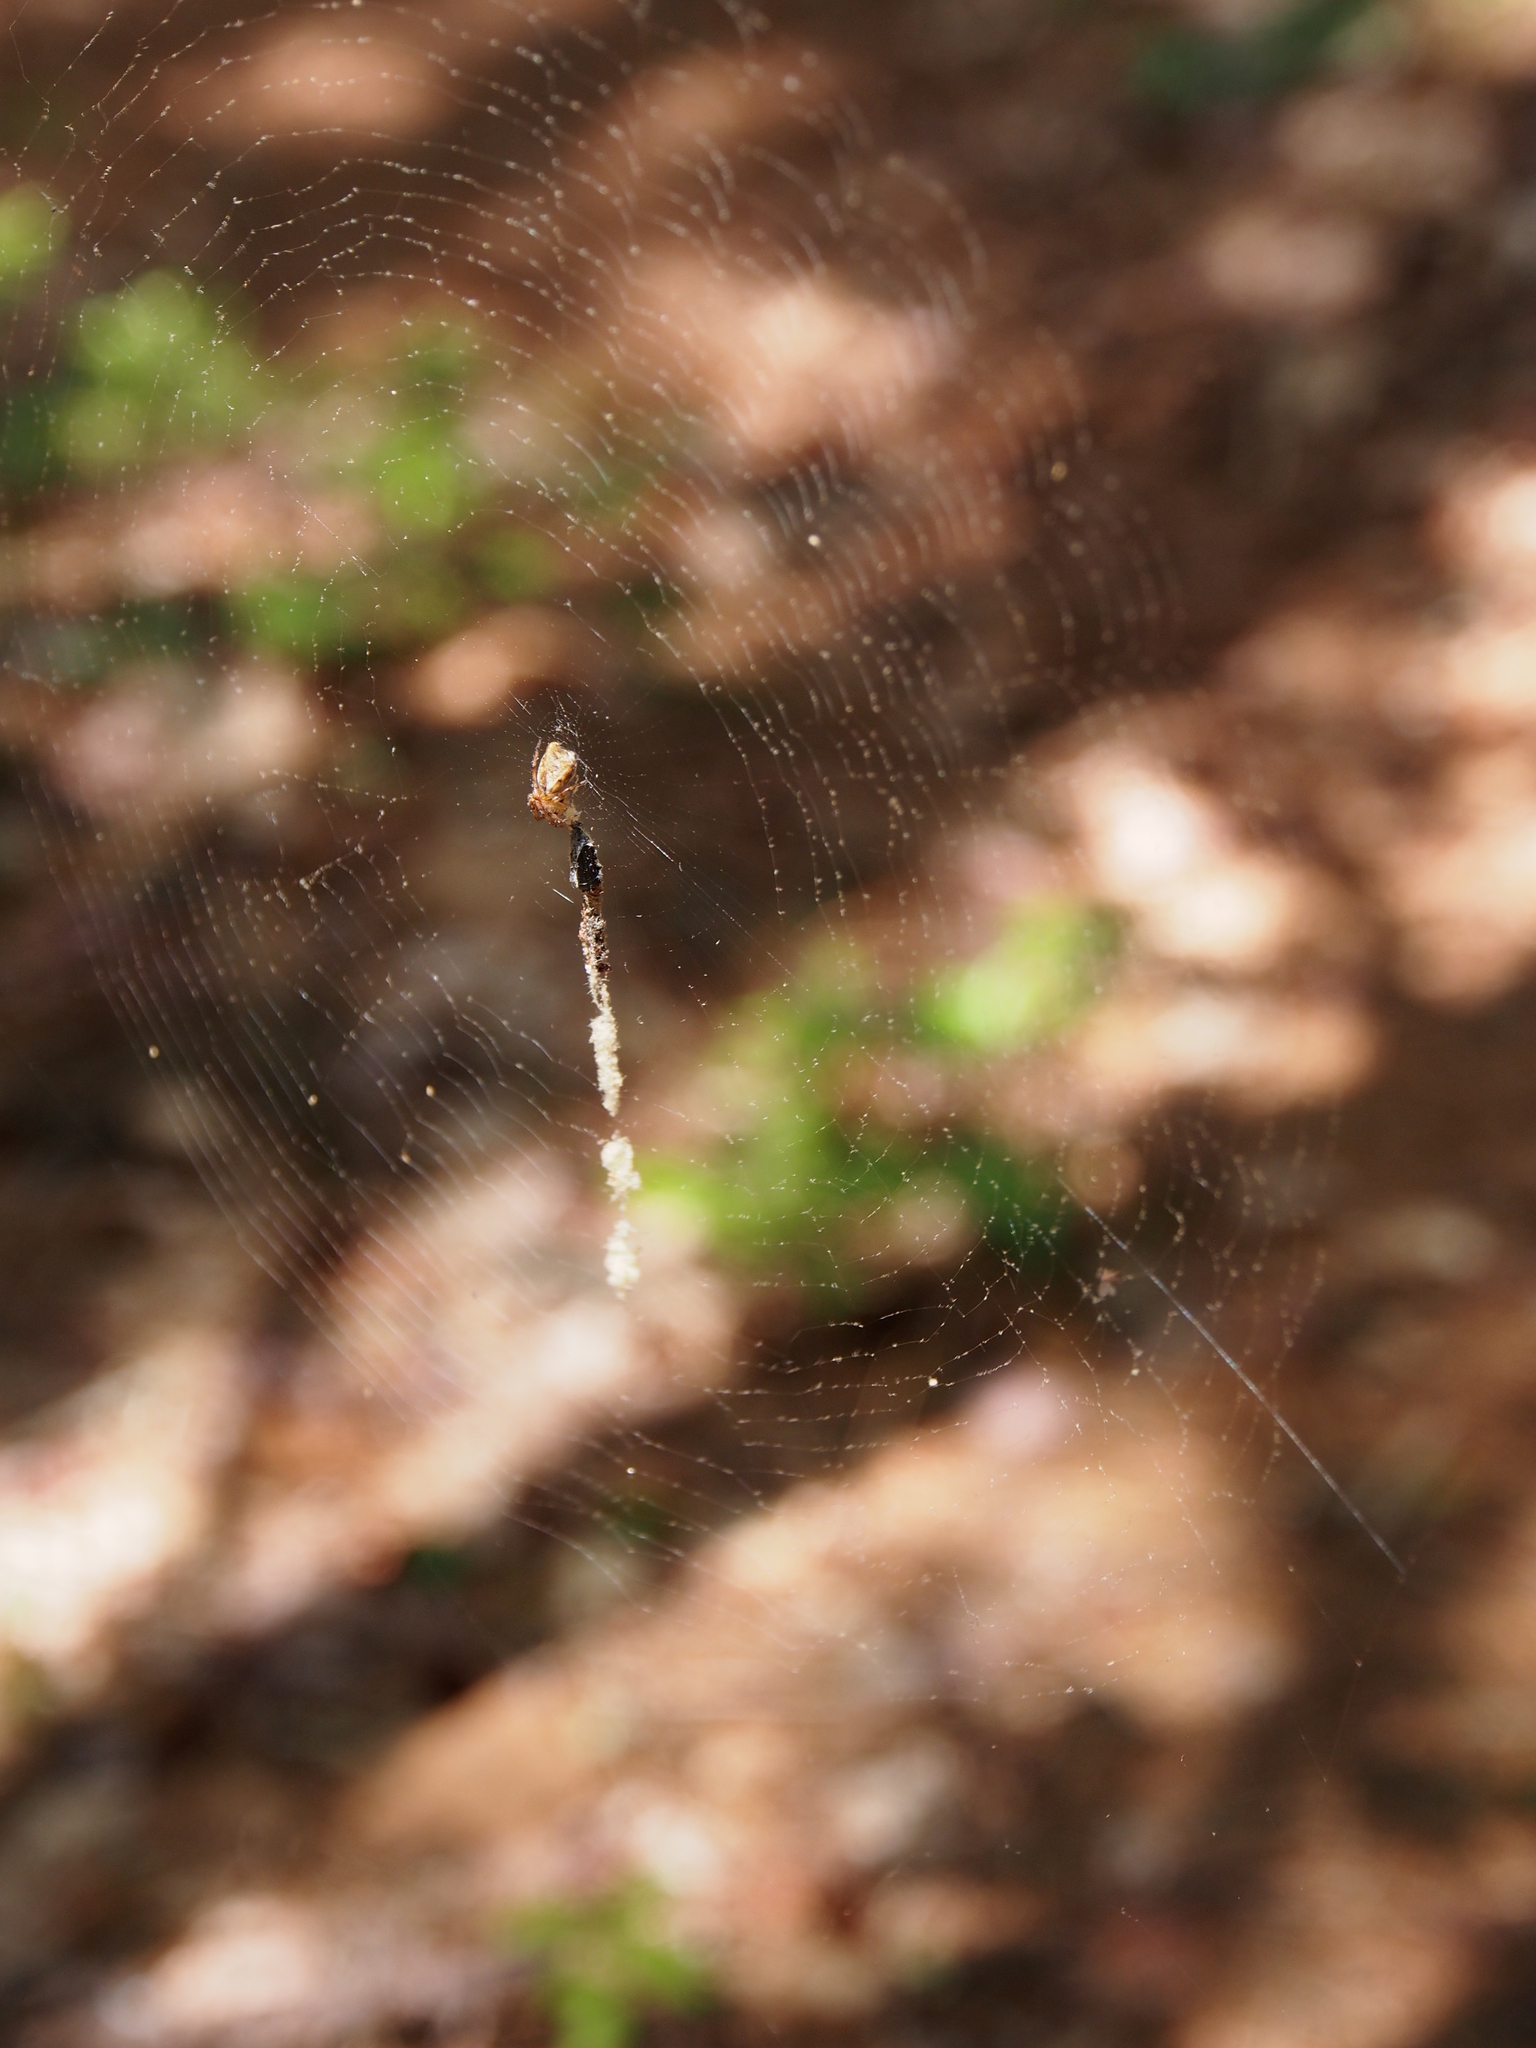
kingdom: Animalia
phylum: Arthropoda
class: Arachnida
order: Araneae
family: Araneidae
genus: Cyclosa
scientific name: Cyclosa conica
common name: Conical trashline orbweaver
